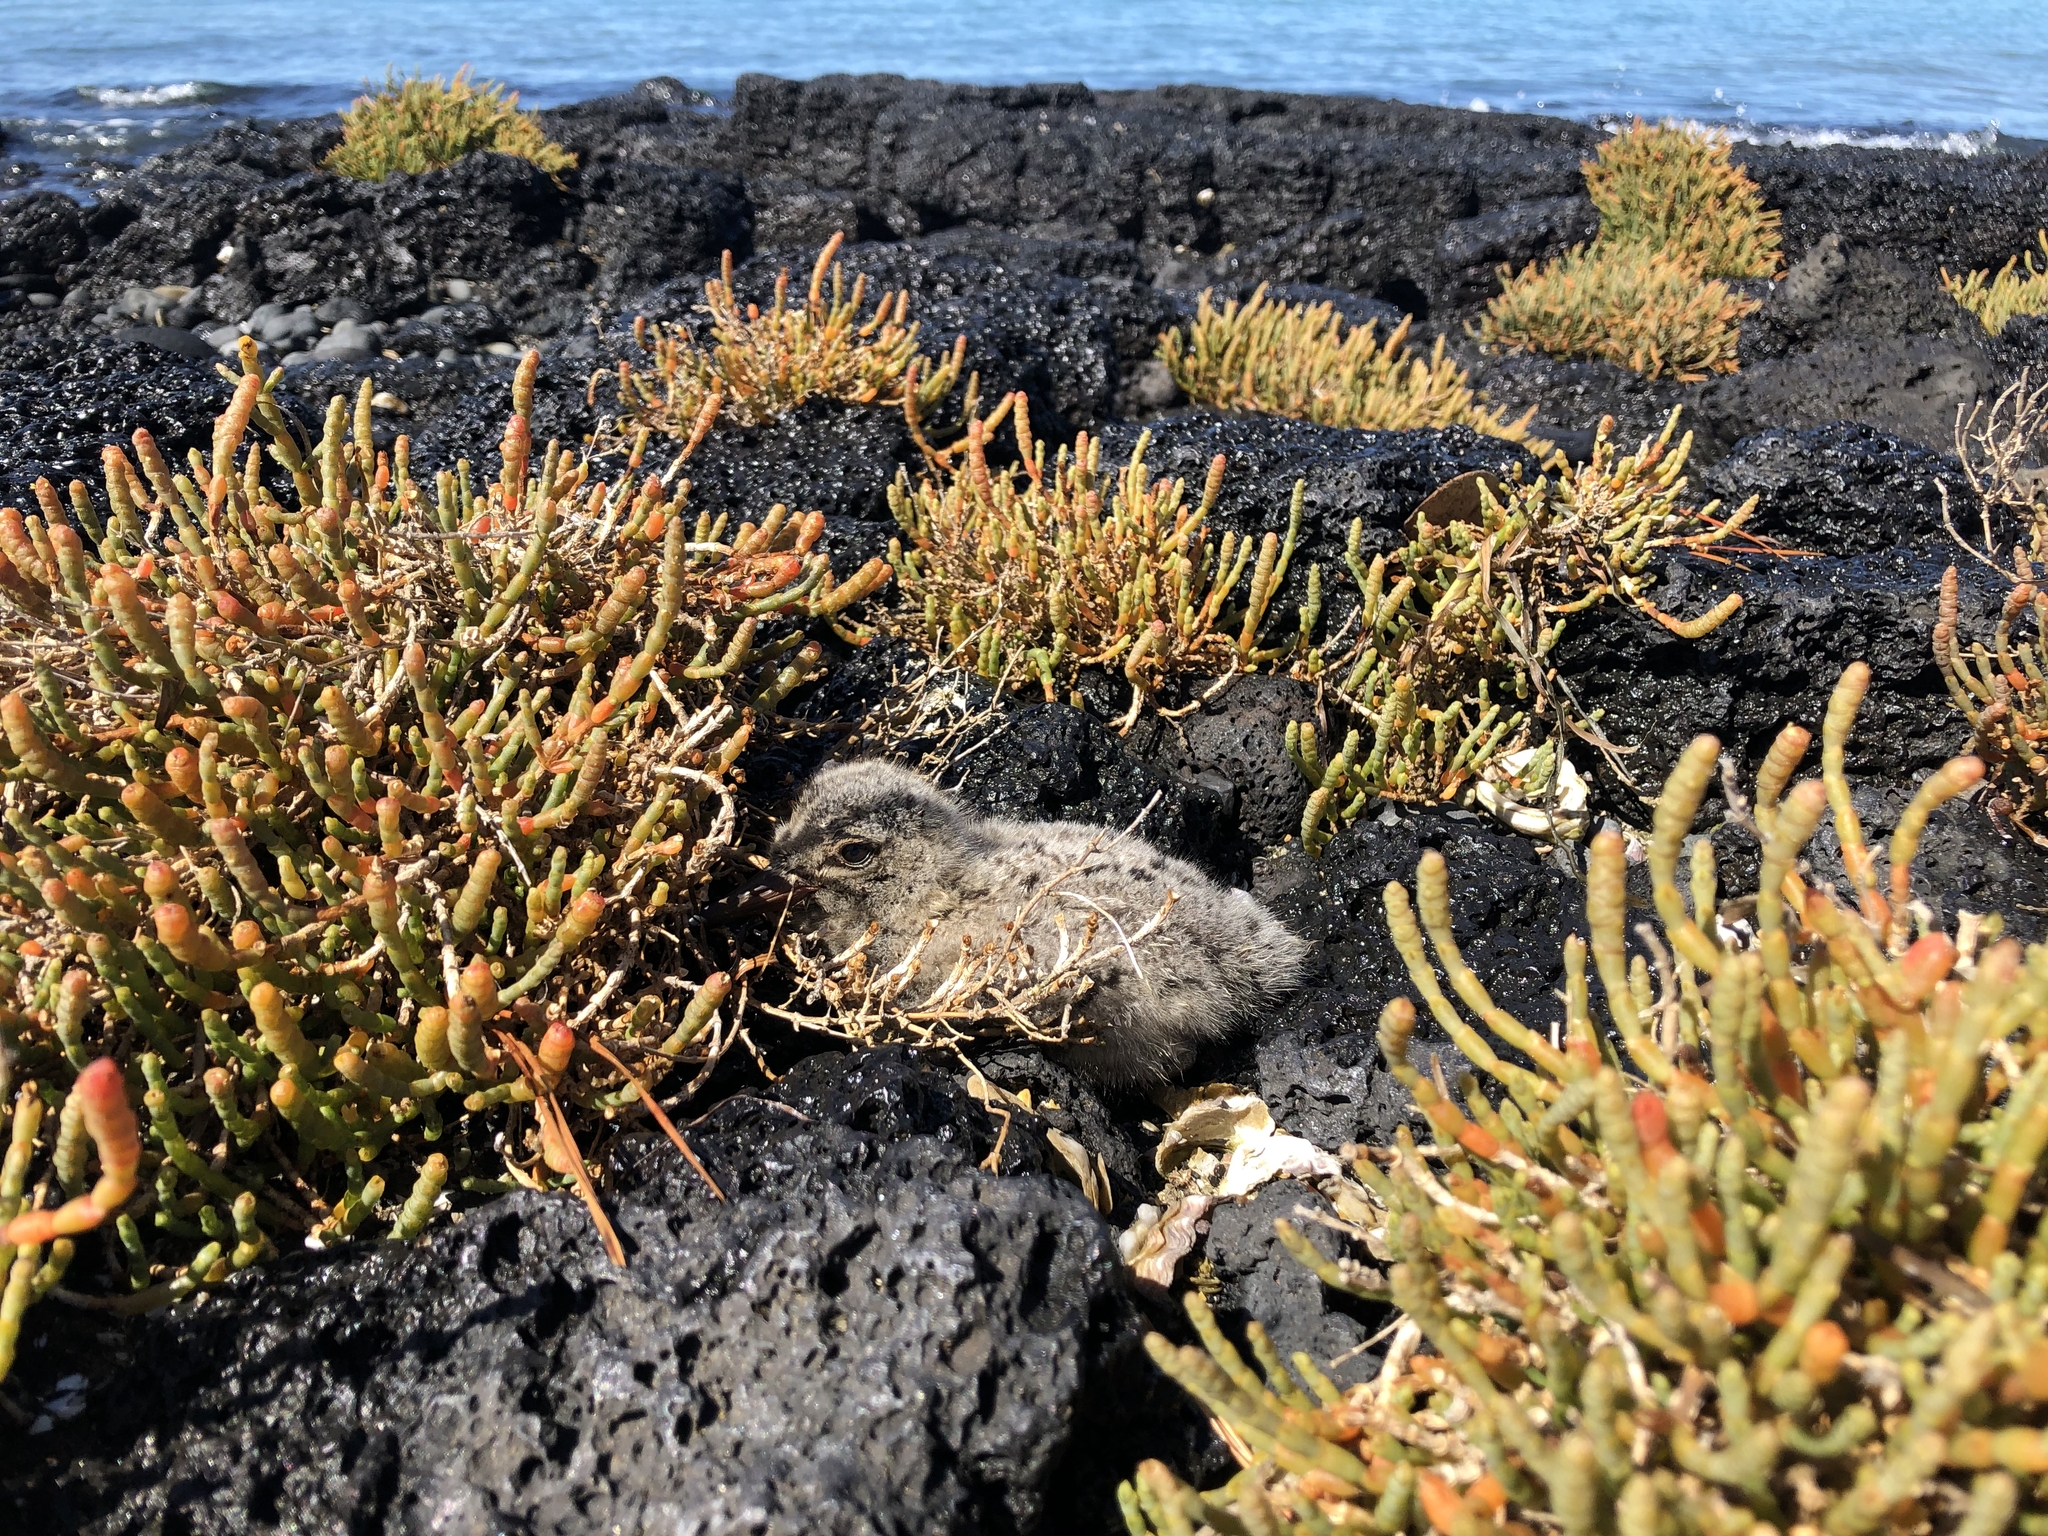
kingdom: Animalia
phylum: Chordata
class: Aves
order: Charadriiformes
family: Haematopodidae
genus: Haematopus
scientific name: Haematopus unicolor
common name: Variable oystercatcher
